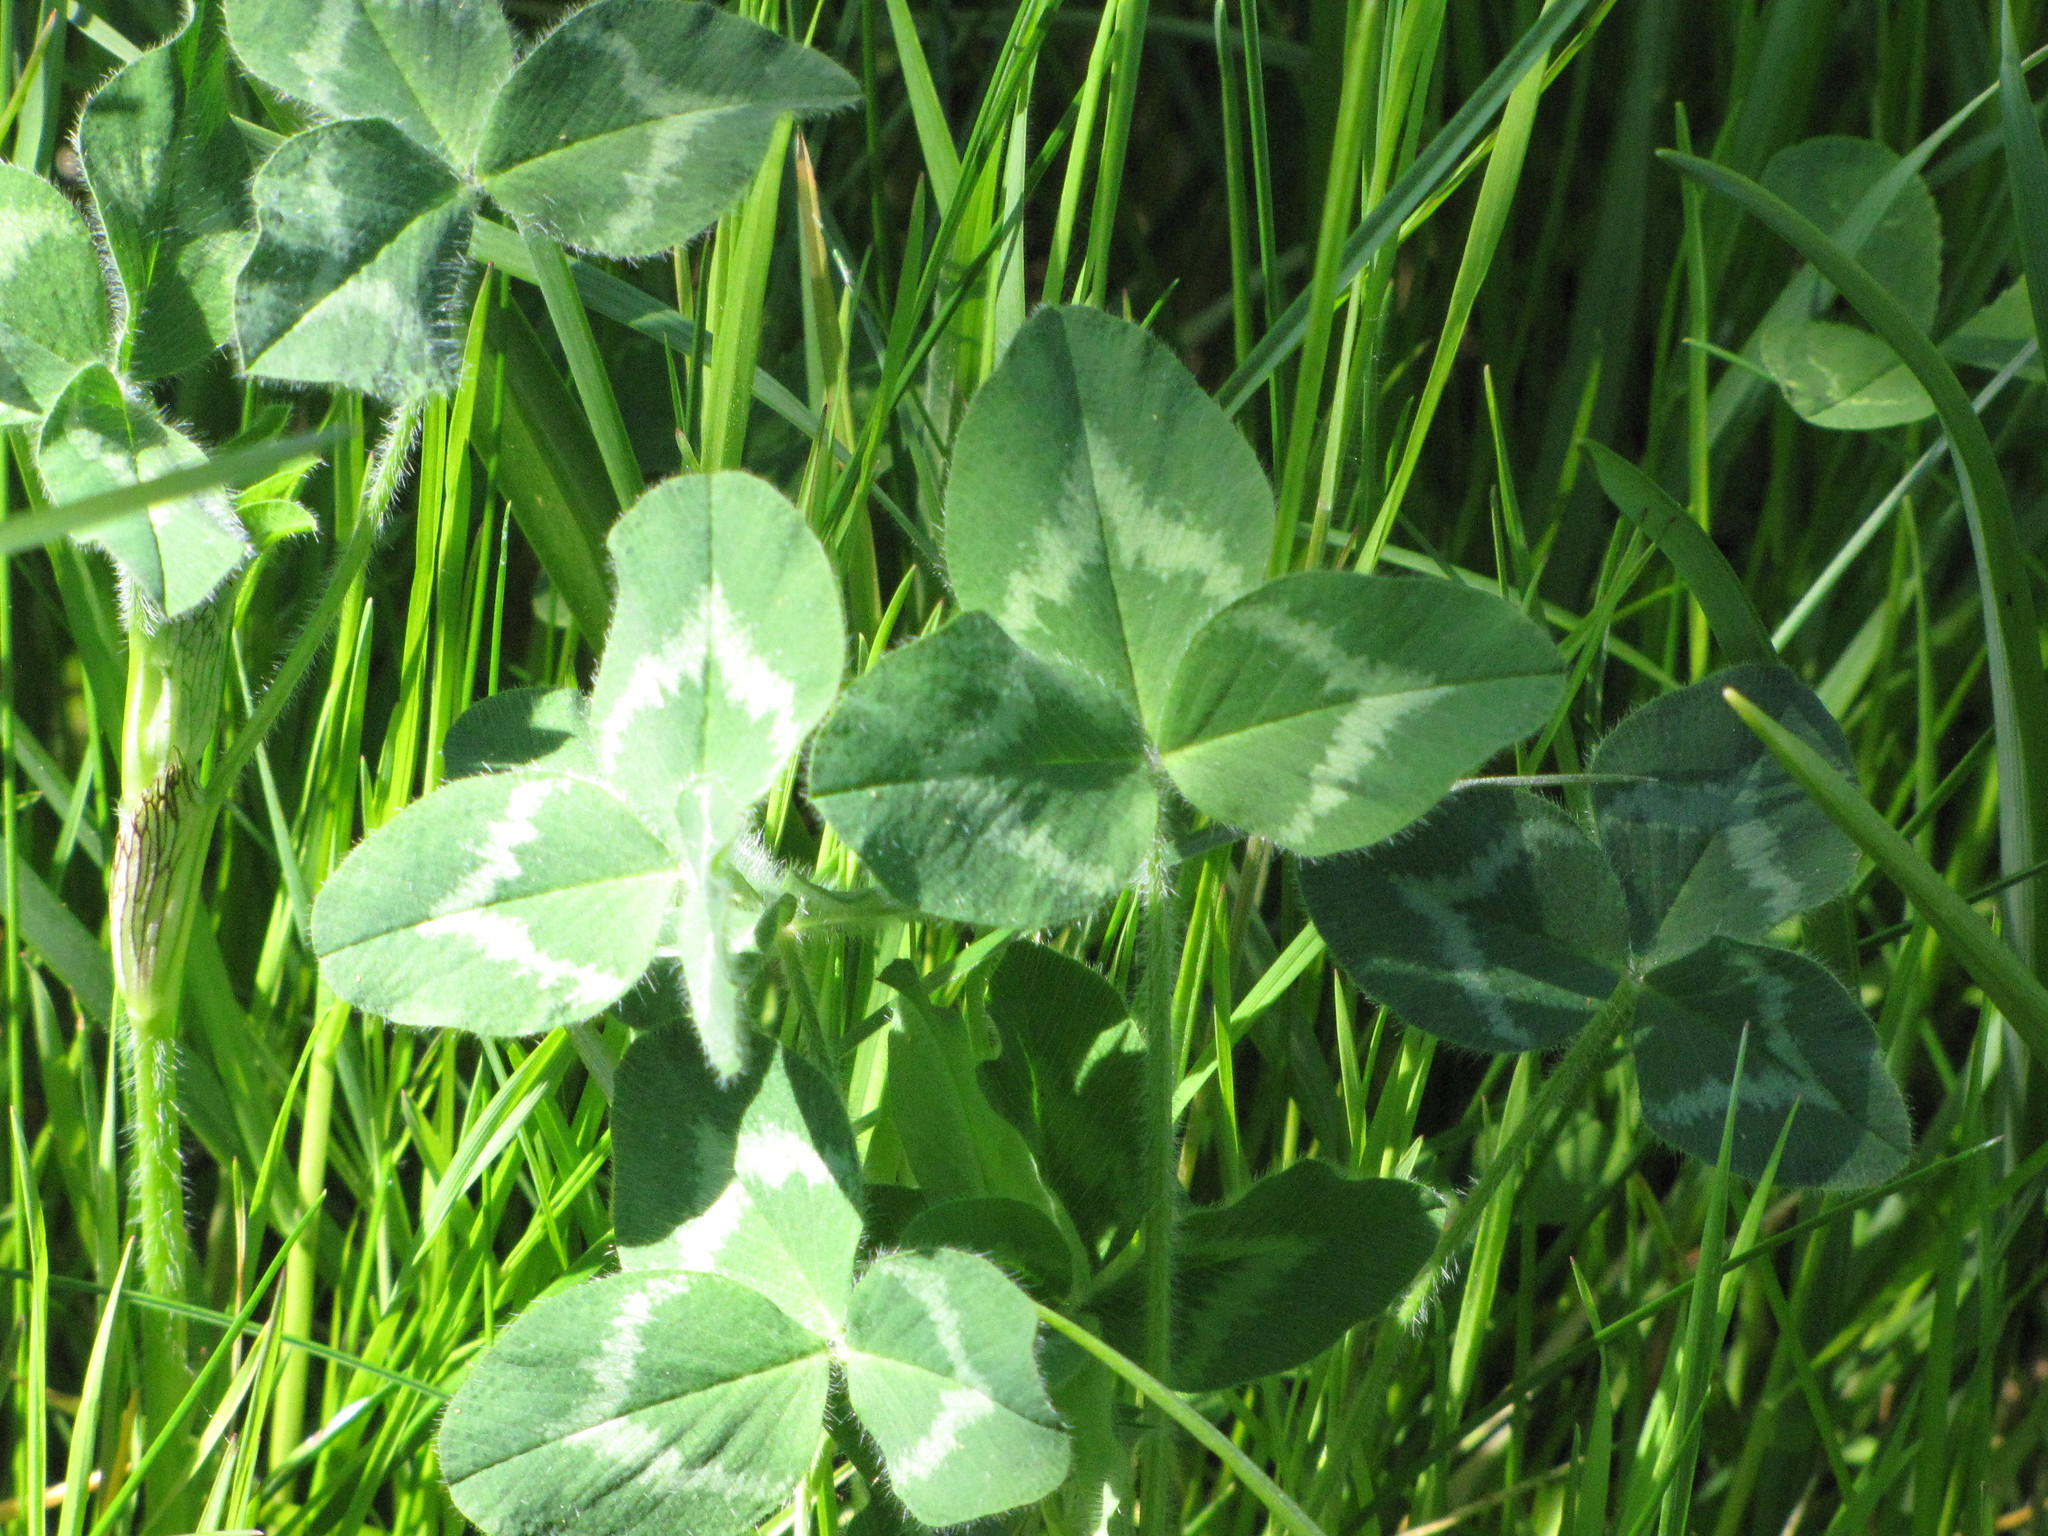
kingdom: Plantae
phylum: Tracheophyta
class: Magnoliopsida
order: Fabales
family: Fabaceae
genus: Trifolium
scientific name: Trifolium pratense
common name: Red clover
